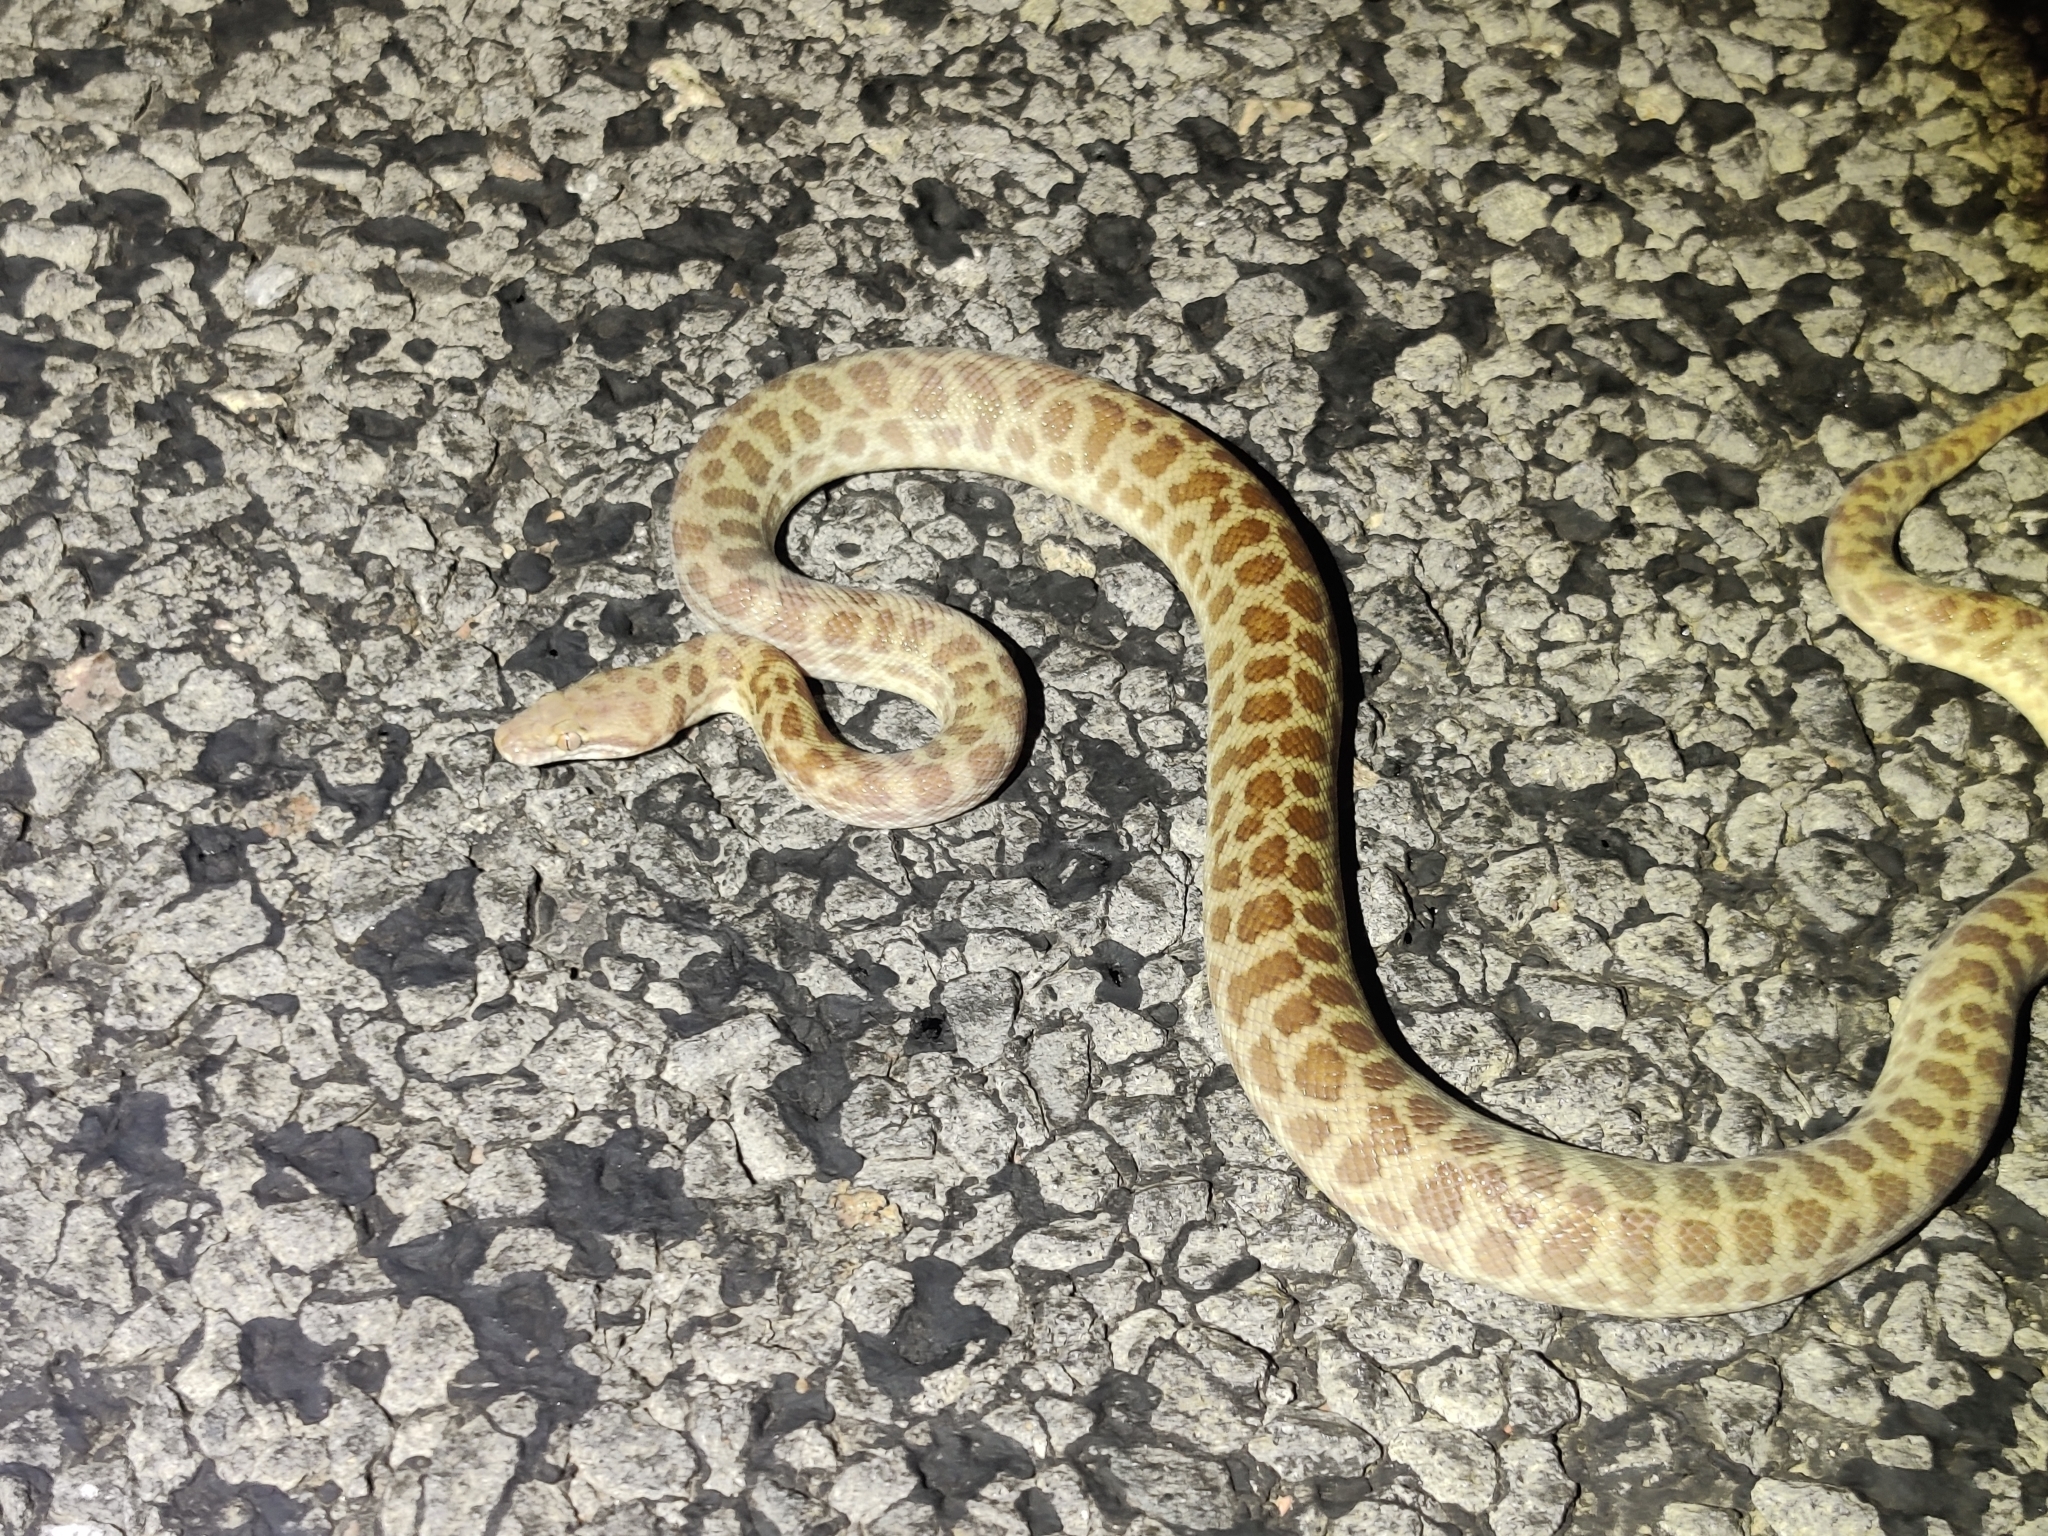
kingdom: Animalia
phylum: Chordata
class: Squamata
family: Pythonidae
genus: Antaresia
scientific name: Antaresia childreni
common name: Children's python
